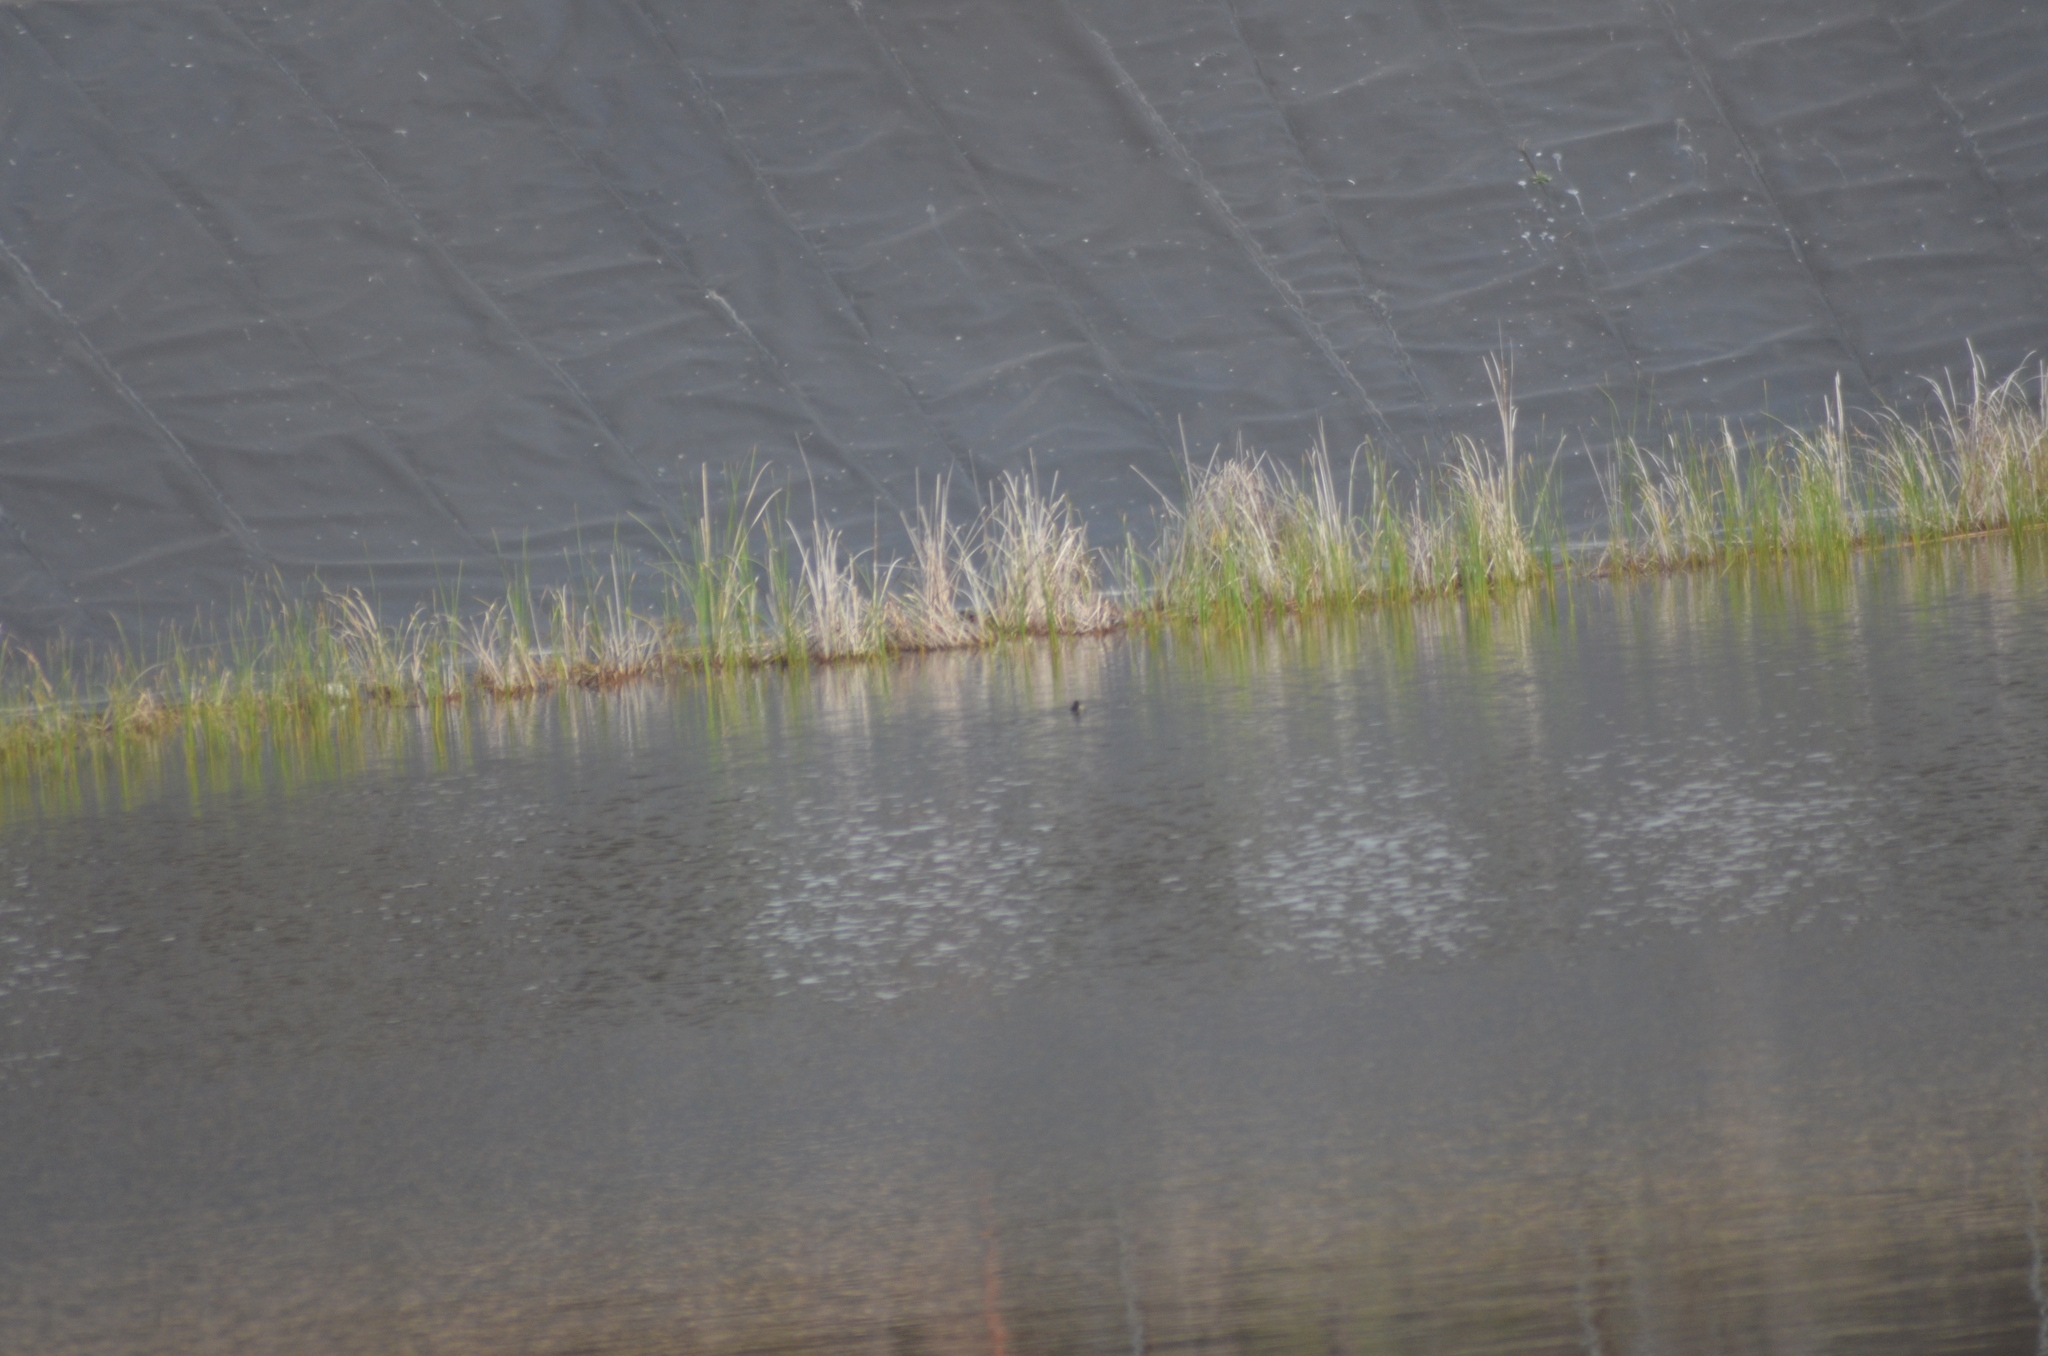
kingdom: Animalia
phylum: Chordata
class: Aves
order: Podicipediformes
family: Podicipedidae
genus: Tachybaptus
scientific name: Tachybaptus ruficollis
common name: Little grebe
